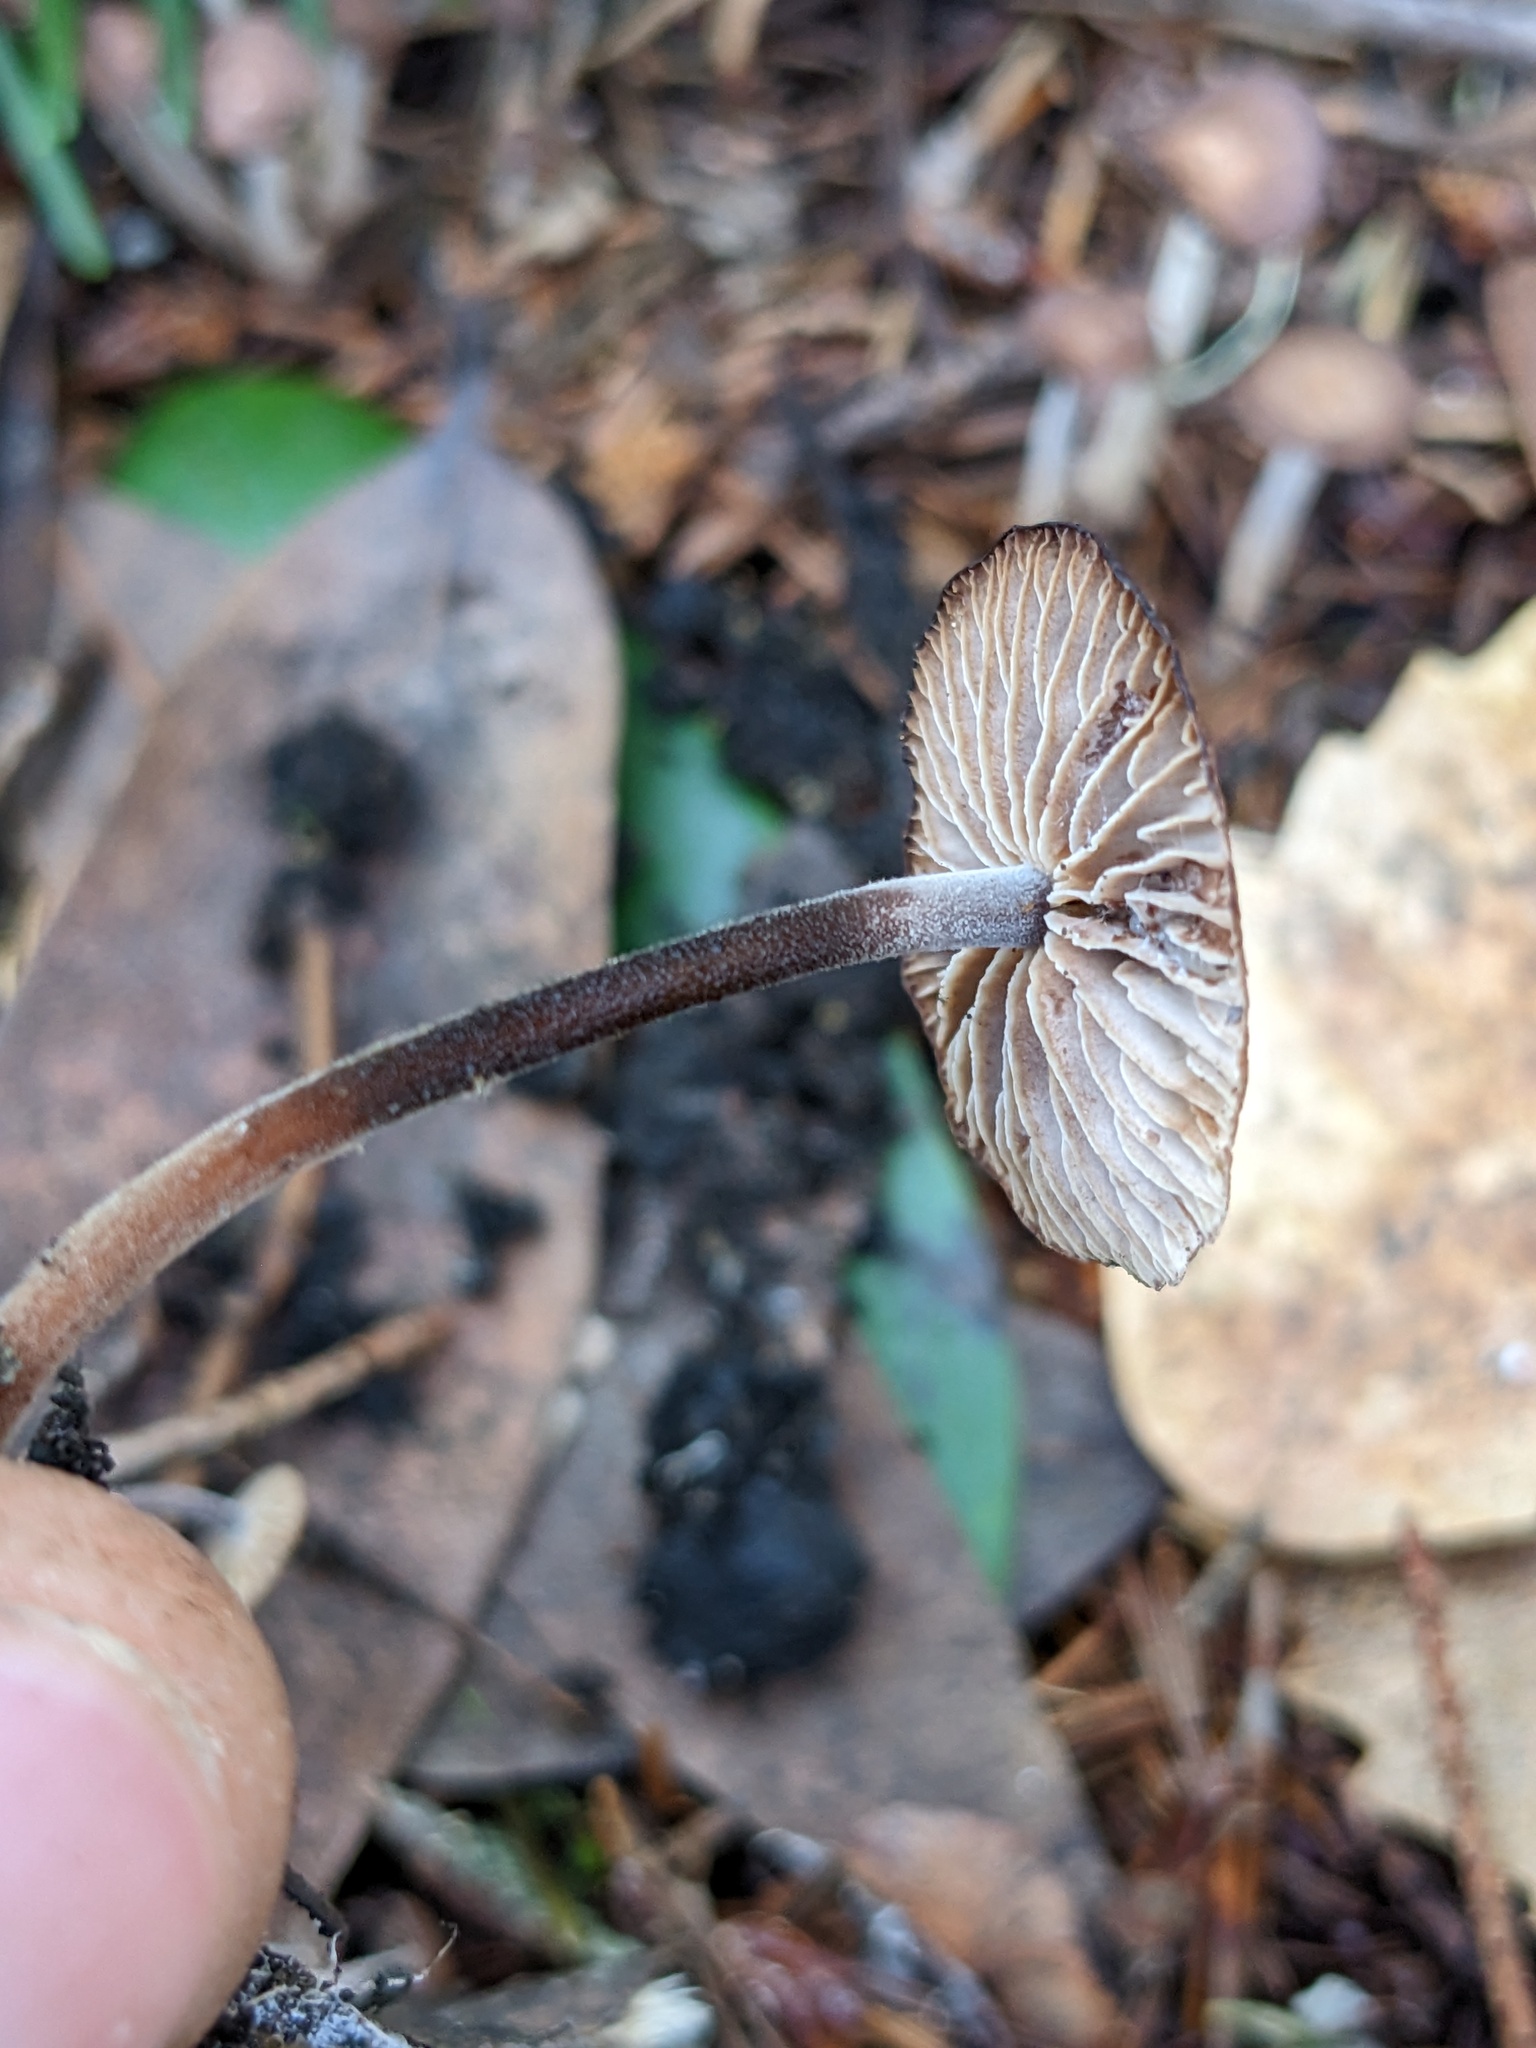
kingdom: Fungi
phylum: Basidiomycota
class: Agaricomycetes
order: Agaricales
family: Omphalotaceae
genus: Collybiopsis
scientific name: Collybiopsis villosipes
